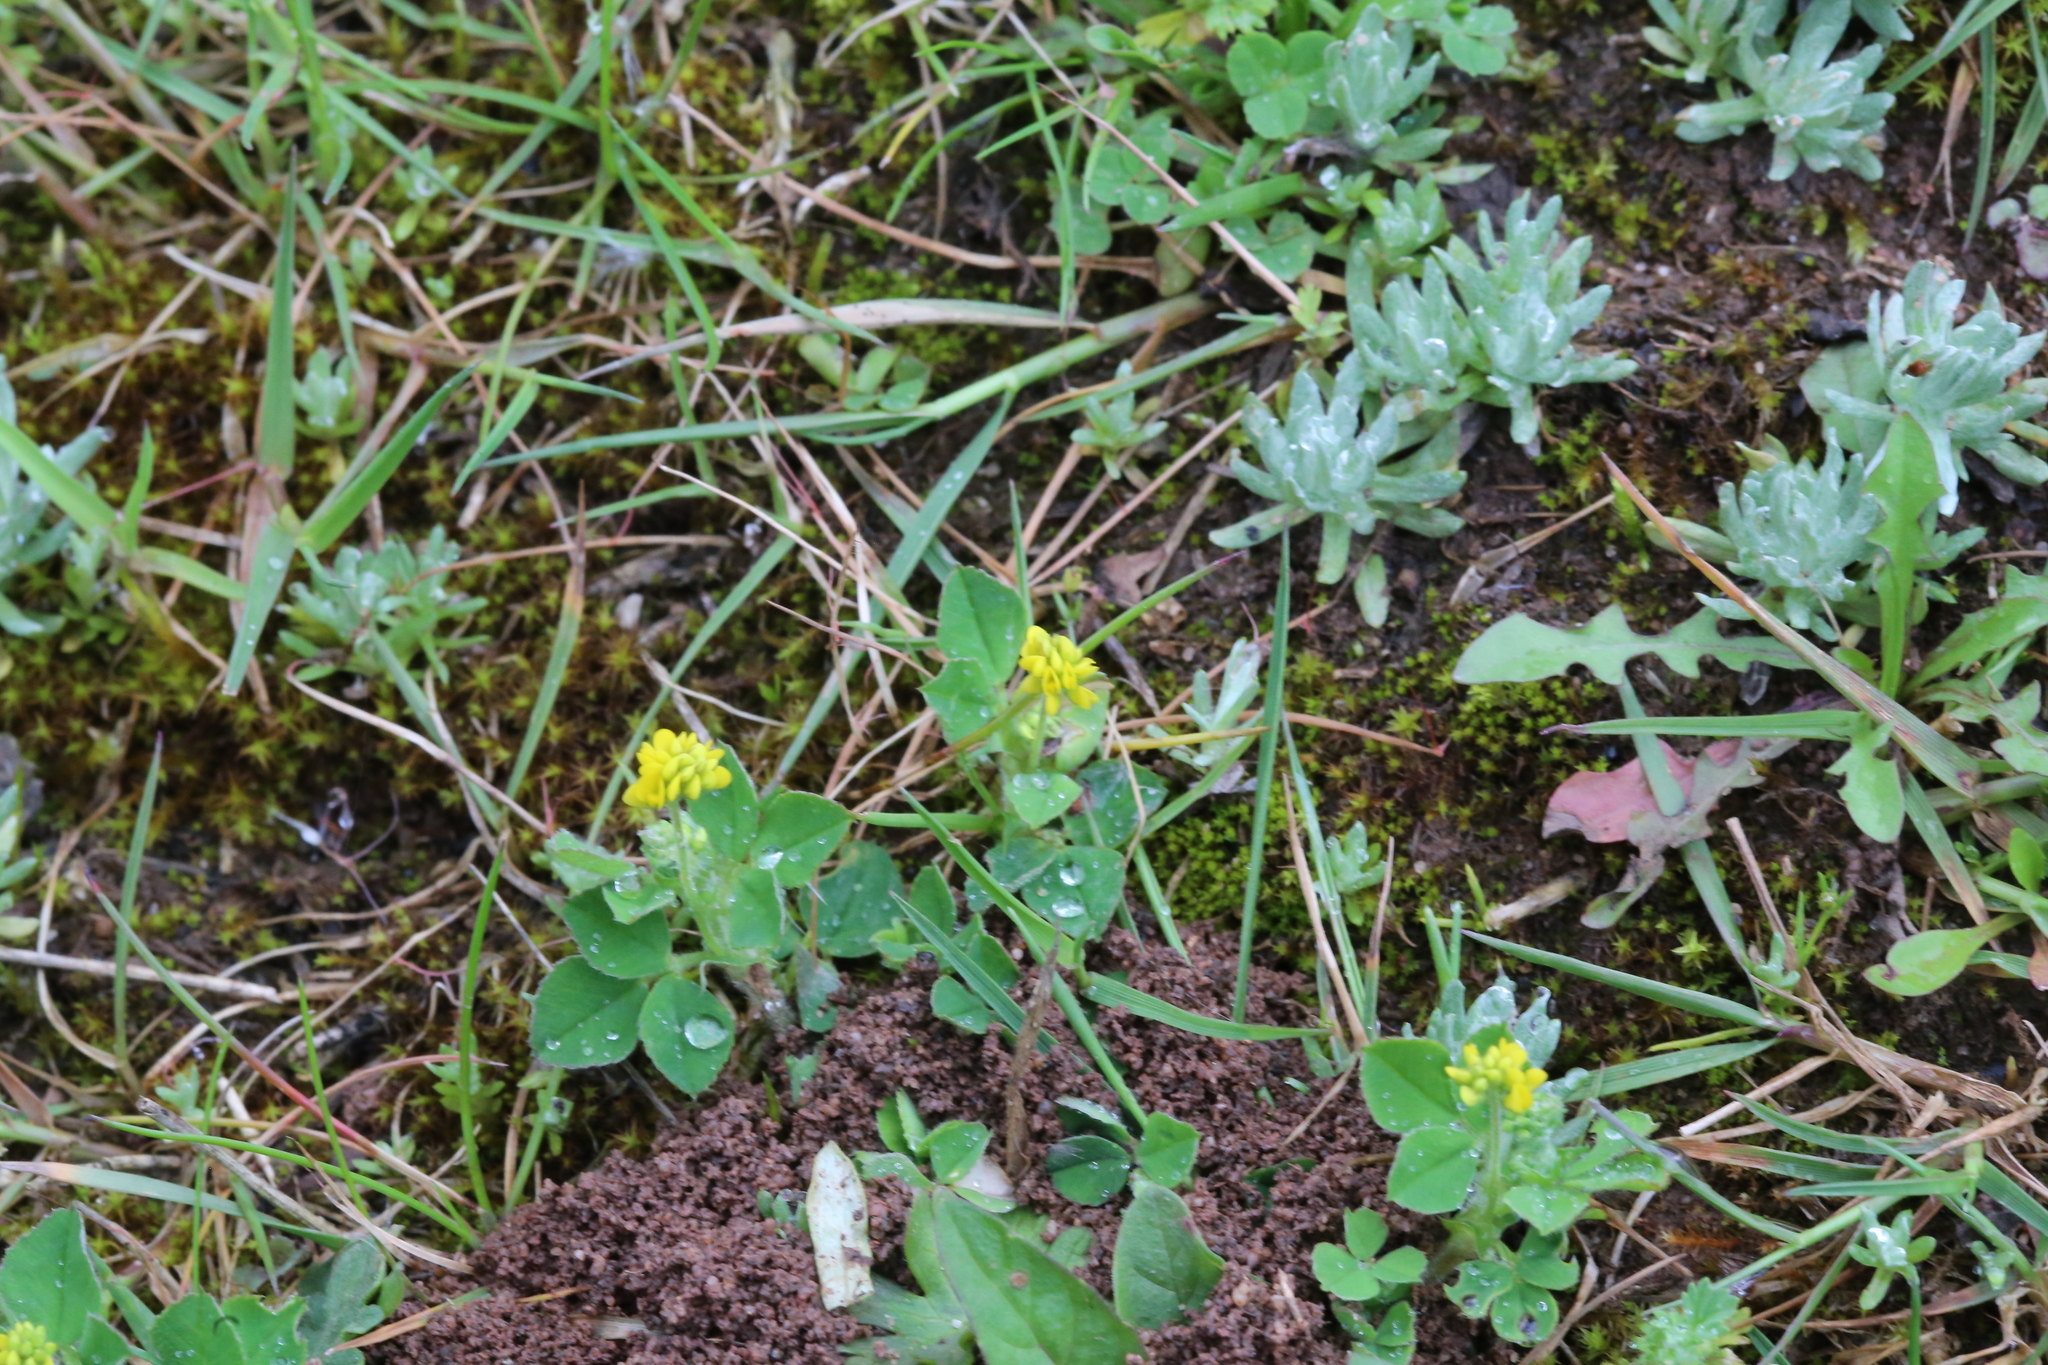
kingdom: Plantae
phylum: Tracheophyta
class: Magnoliopsida
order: Fabales
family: Fabaceae
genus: Medicago
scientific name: Medicago lupulina
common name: Black medick
